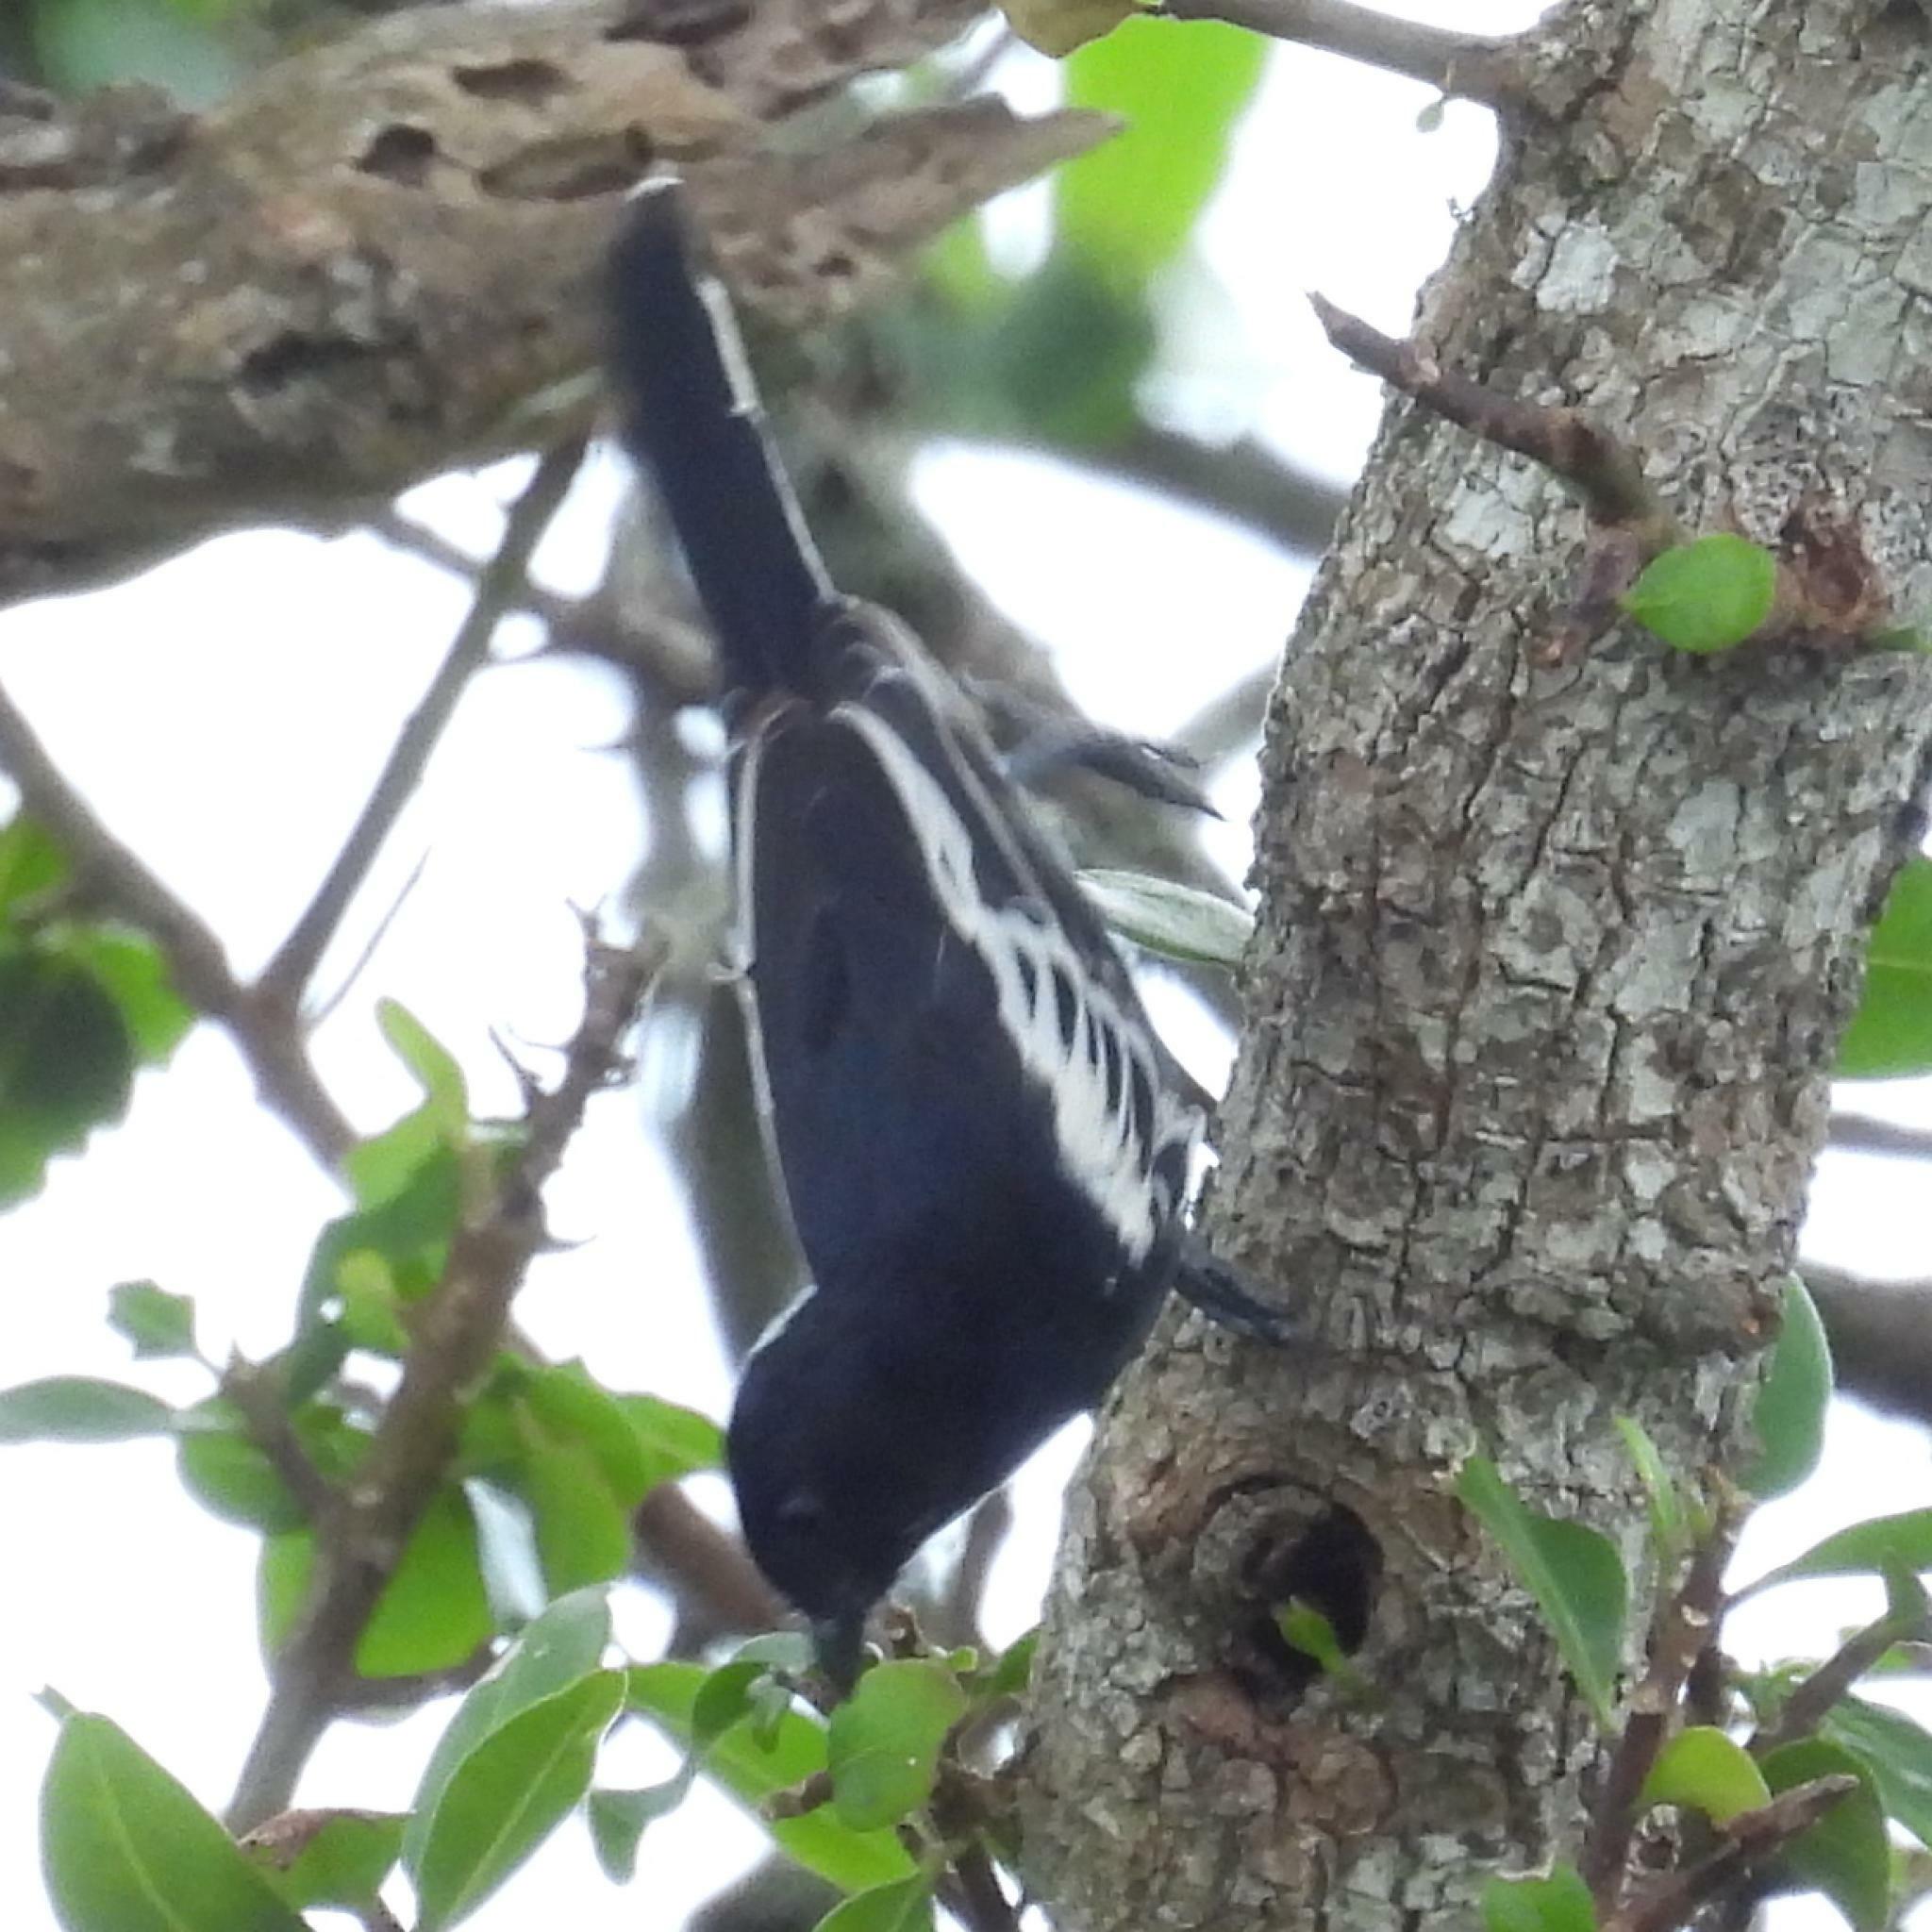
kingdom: Animalia
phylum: Chordata
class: Aves
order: Passeriformes
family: Paridae
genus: Parus
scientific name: Parus niger
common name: Southern black tit
